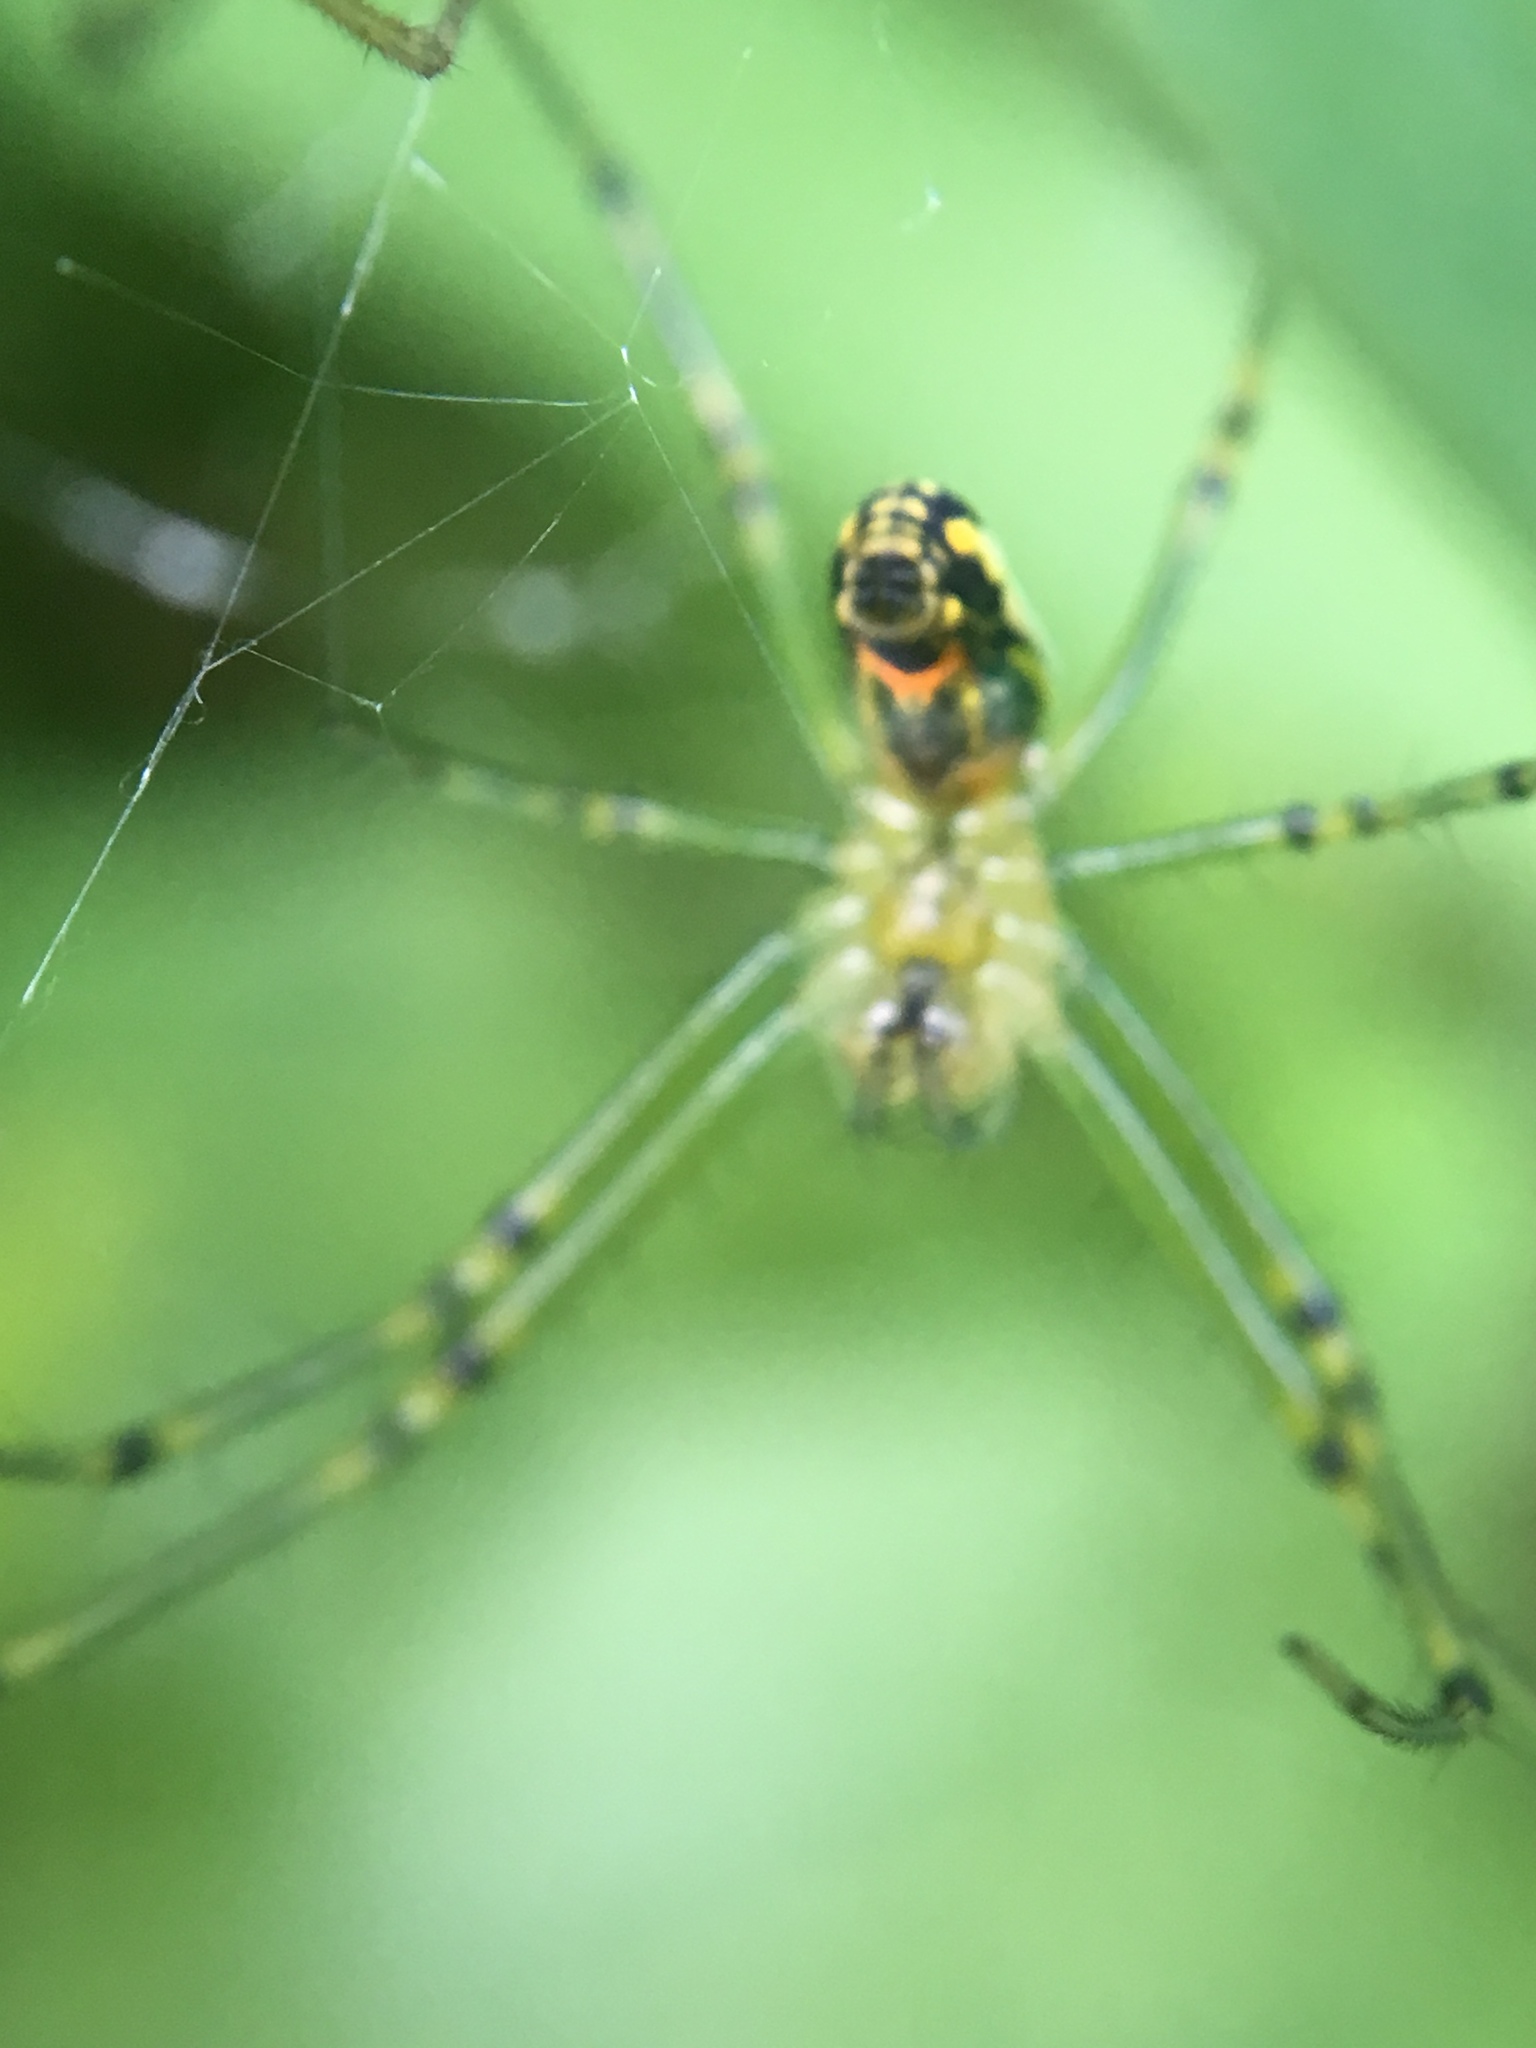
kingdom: Animalia
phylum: Arthropoda
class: Arachnida
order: Araneae
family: Tetragnathidae
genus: Leucauge
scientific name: Leucauge venusta
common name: Longjawed orb weavers
